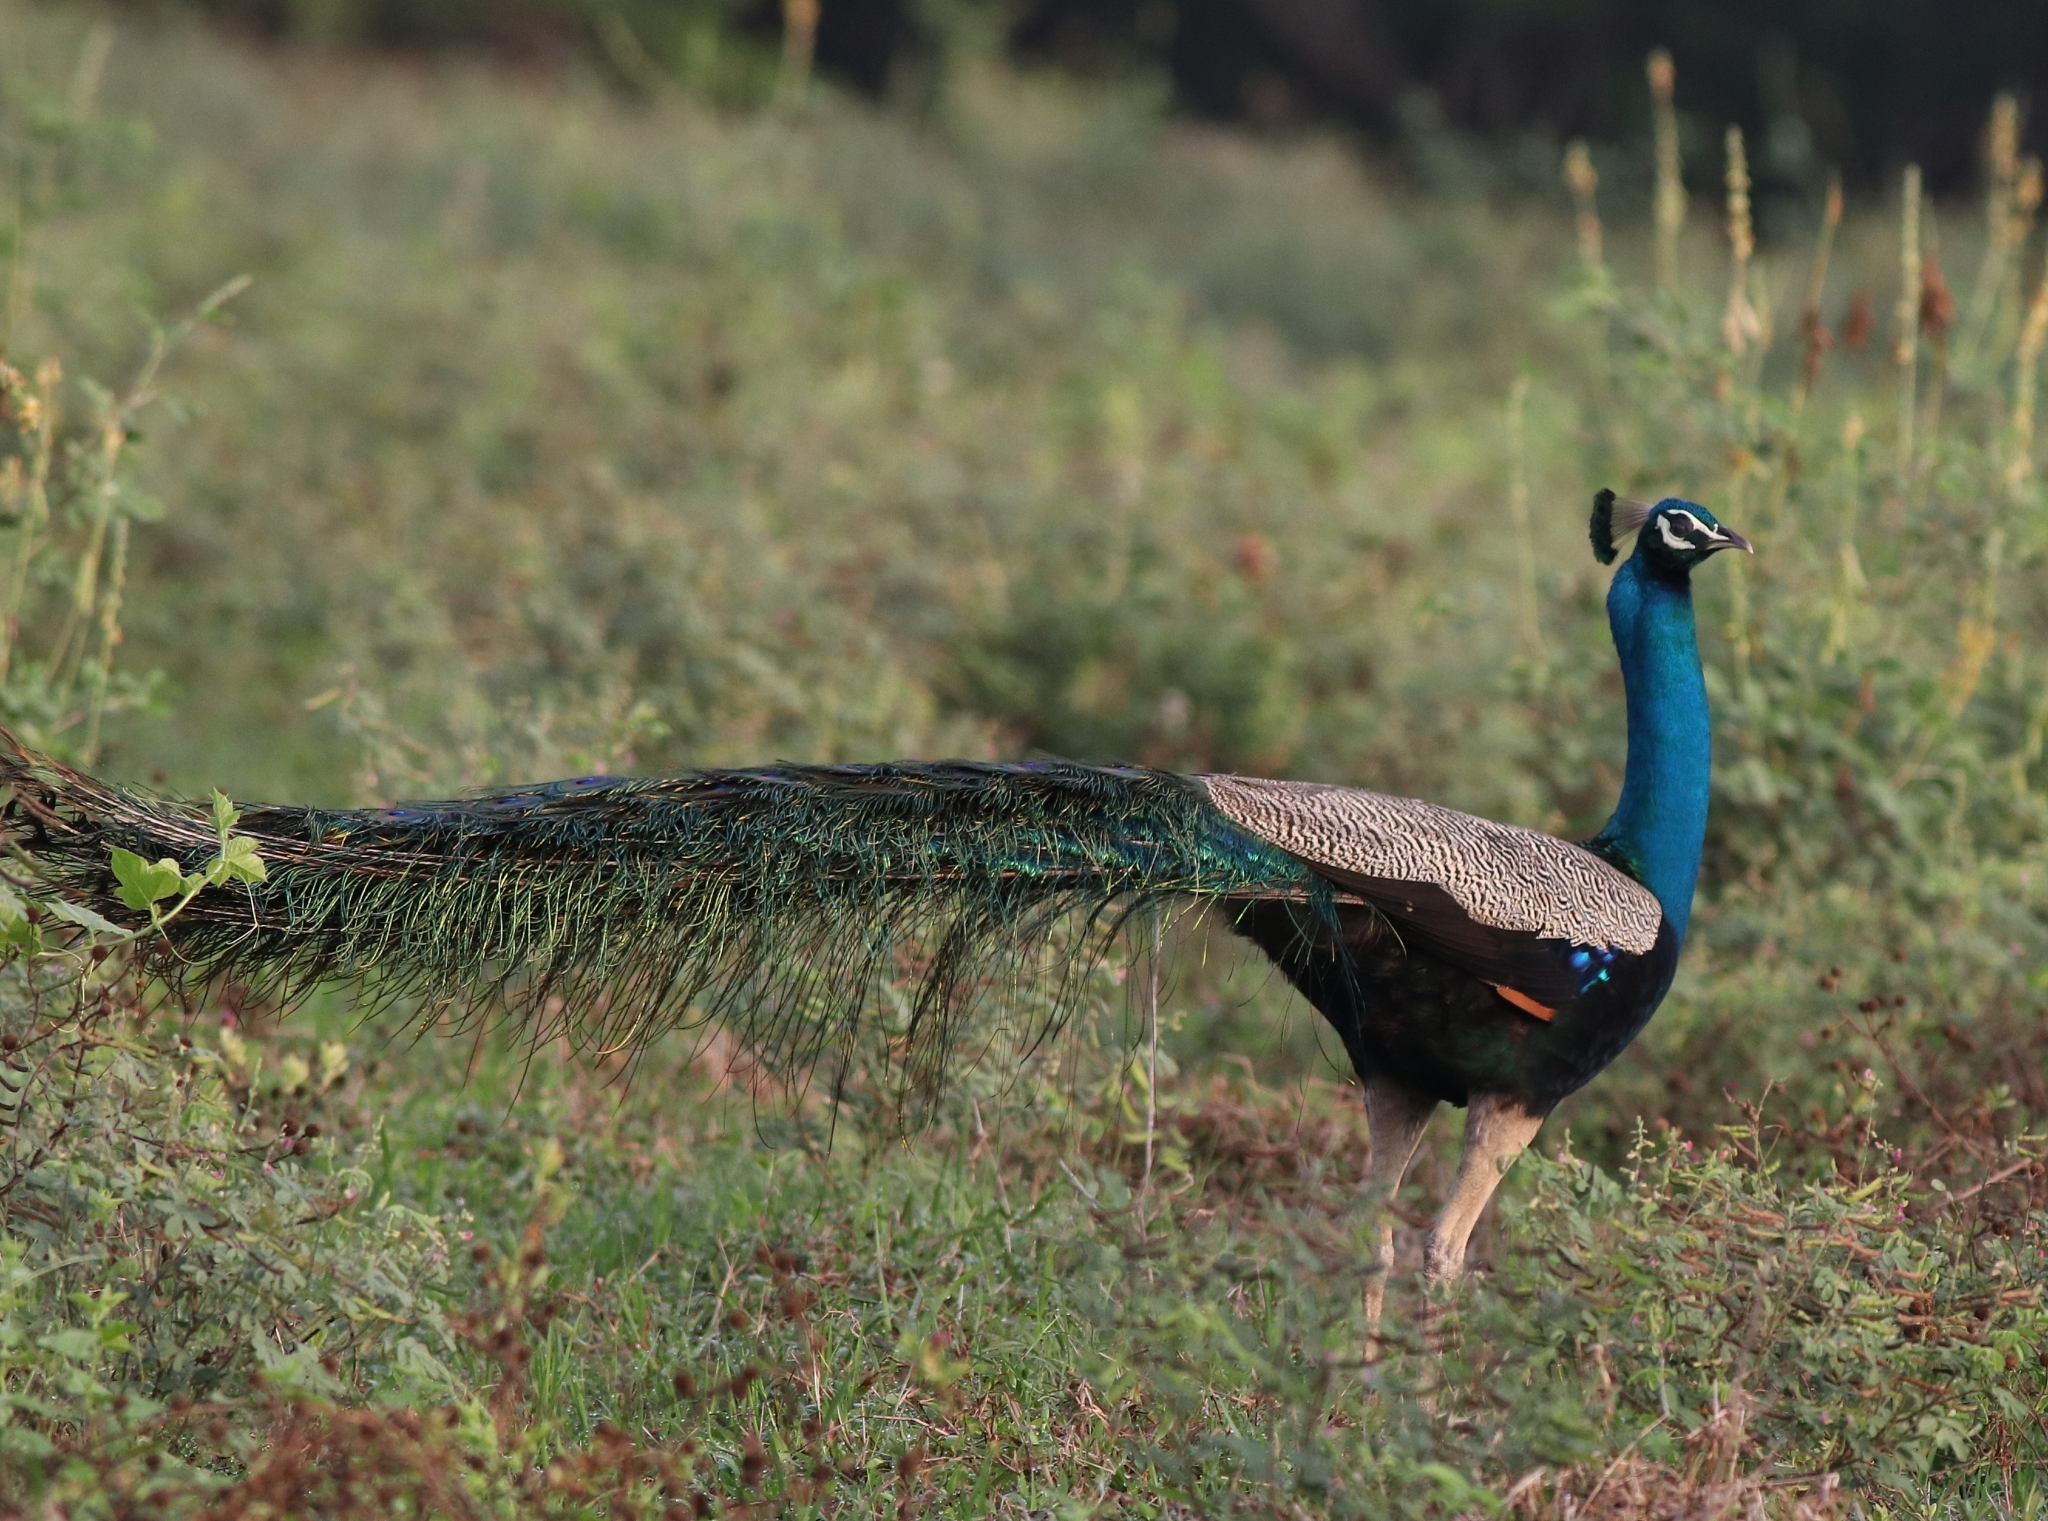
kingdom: Animalia
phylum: Chordata
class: Aves
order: Galliformes
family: Phasianidae
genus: Pavo
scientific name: Pavo cristatus
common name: Indian peafowl
